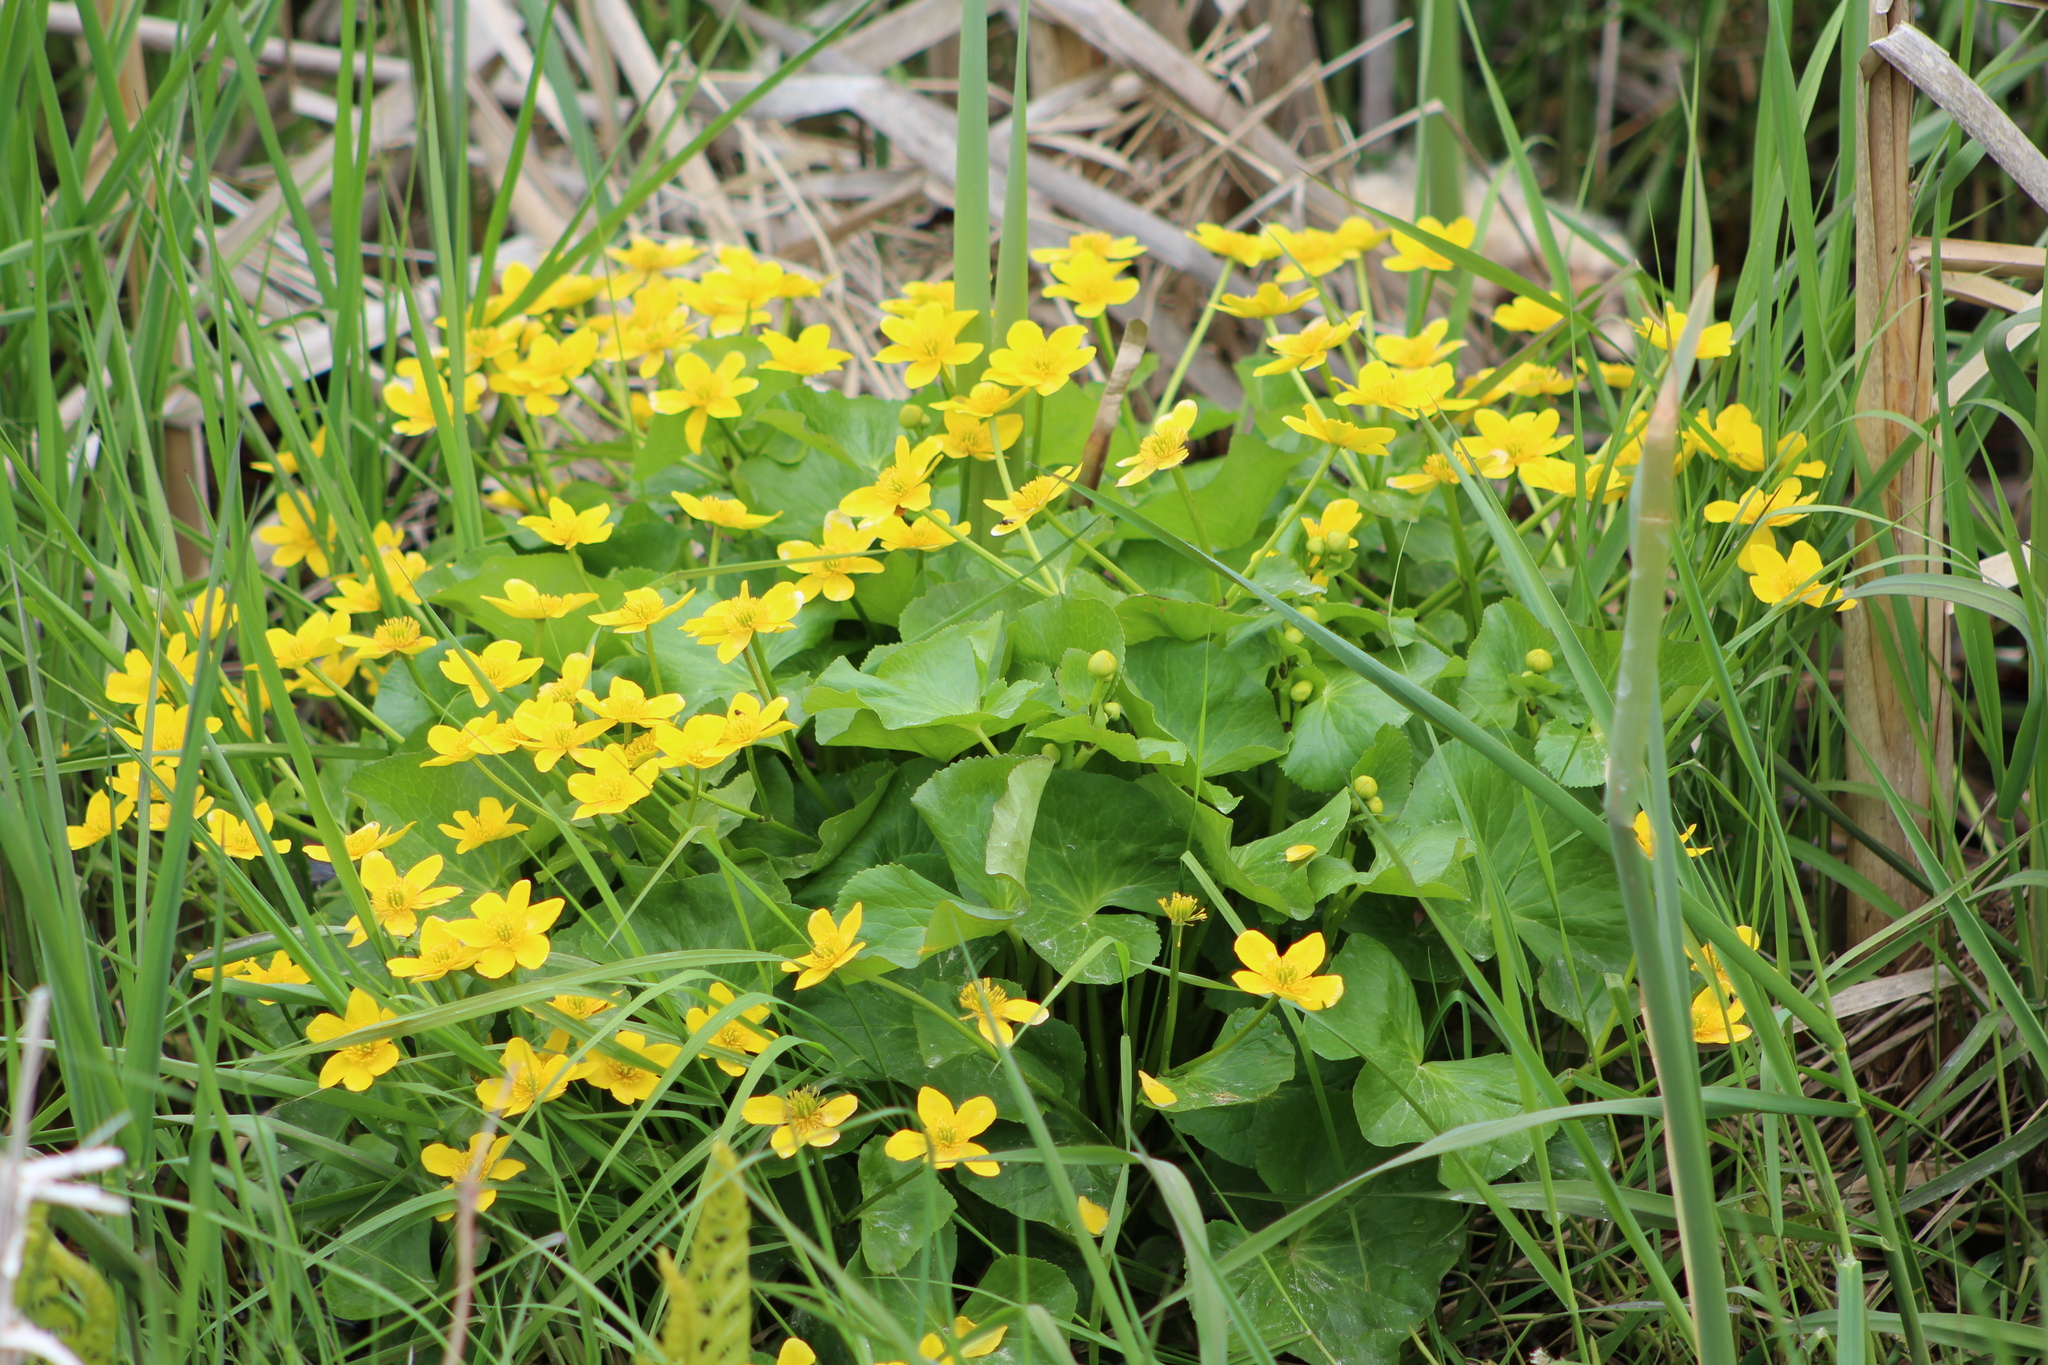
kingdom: Plantae
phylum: Tracheophyta
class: Magnoliopsida
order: Ranunculales
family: Ranunculaceae
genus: Caltha
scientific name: Caltha palustris
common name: Marsh marigold
